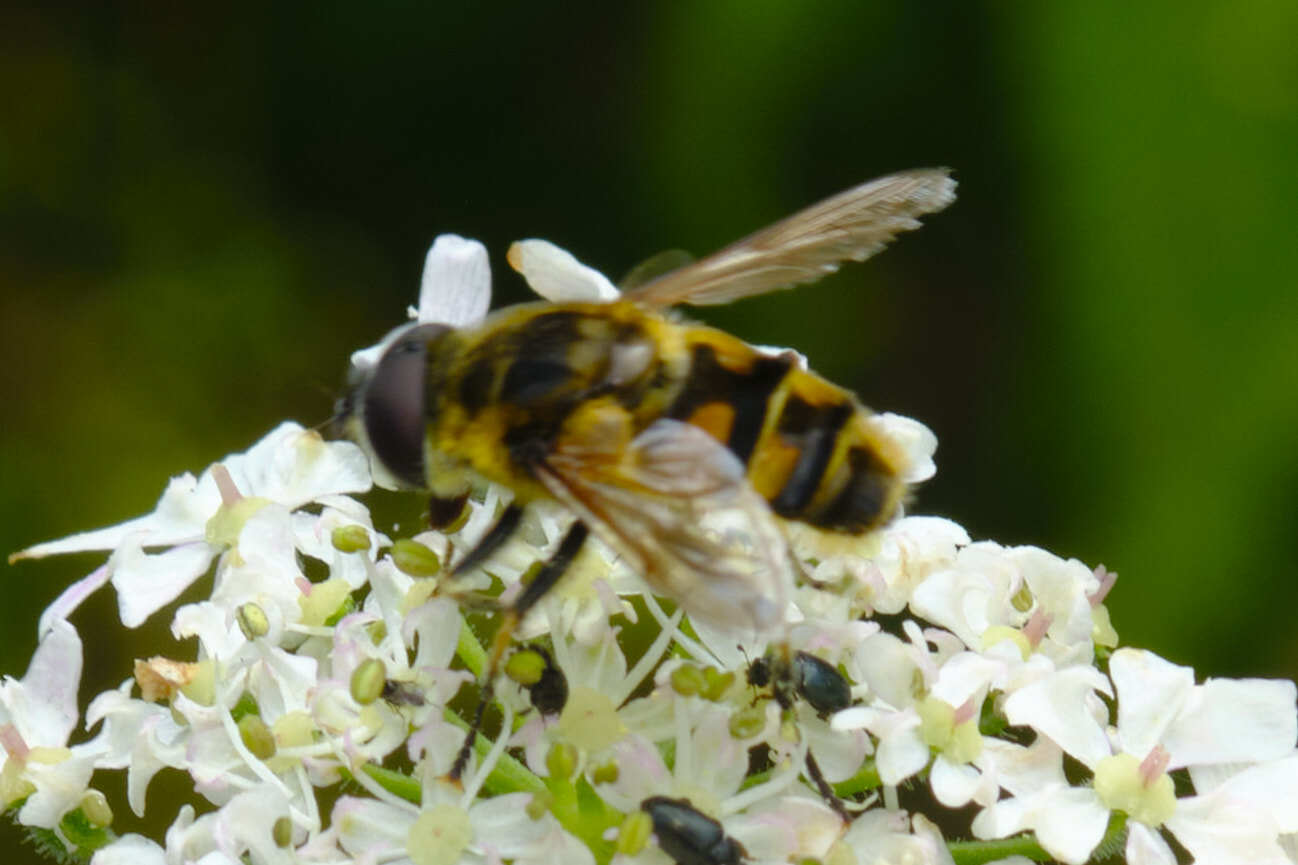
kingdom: Animalia
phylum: Arthropoda
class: Insecta
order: Diptera
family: Syrphidae
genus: Myathropa
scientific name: Myathropa florea
